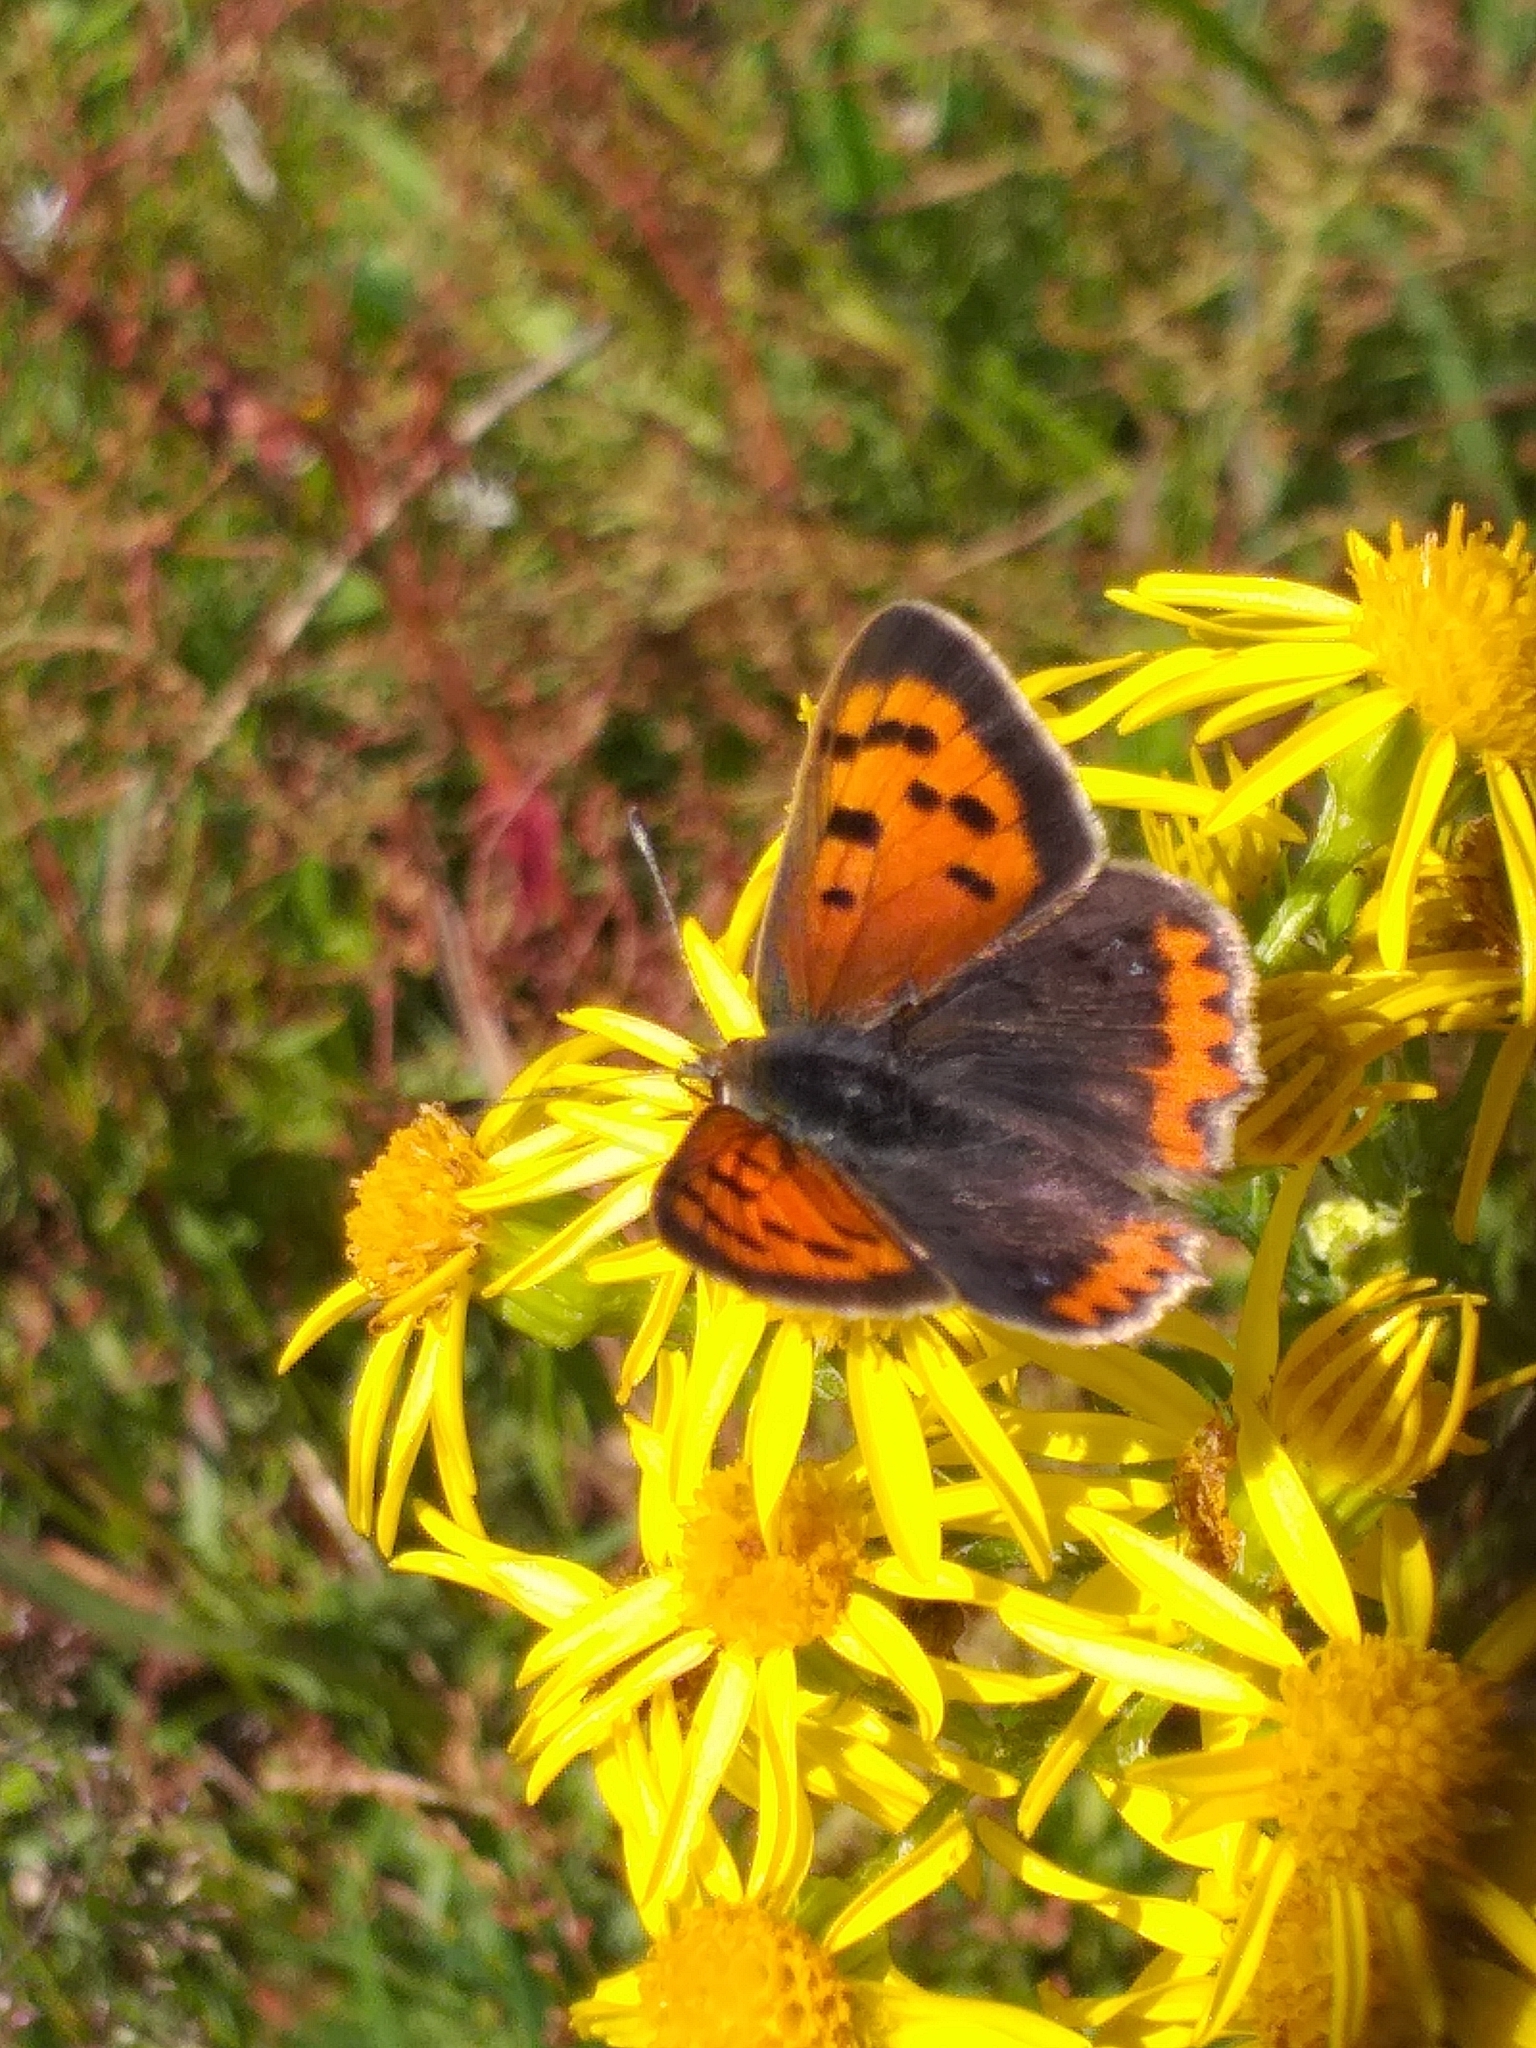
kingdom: Animalia
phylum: Arthropoda
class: Insecta
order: Lepidoptera
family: Lycaenidae
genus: Lycaena
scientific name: Lycaena phlaeas
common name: Small copper
